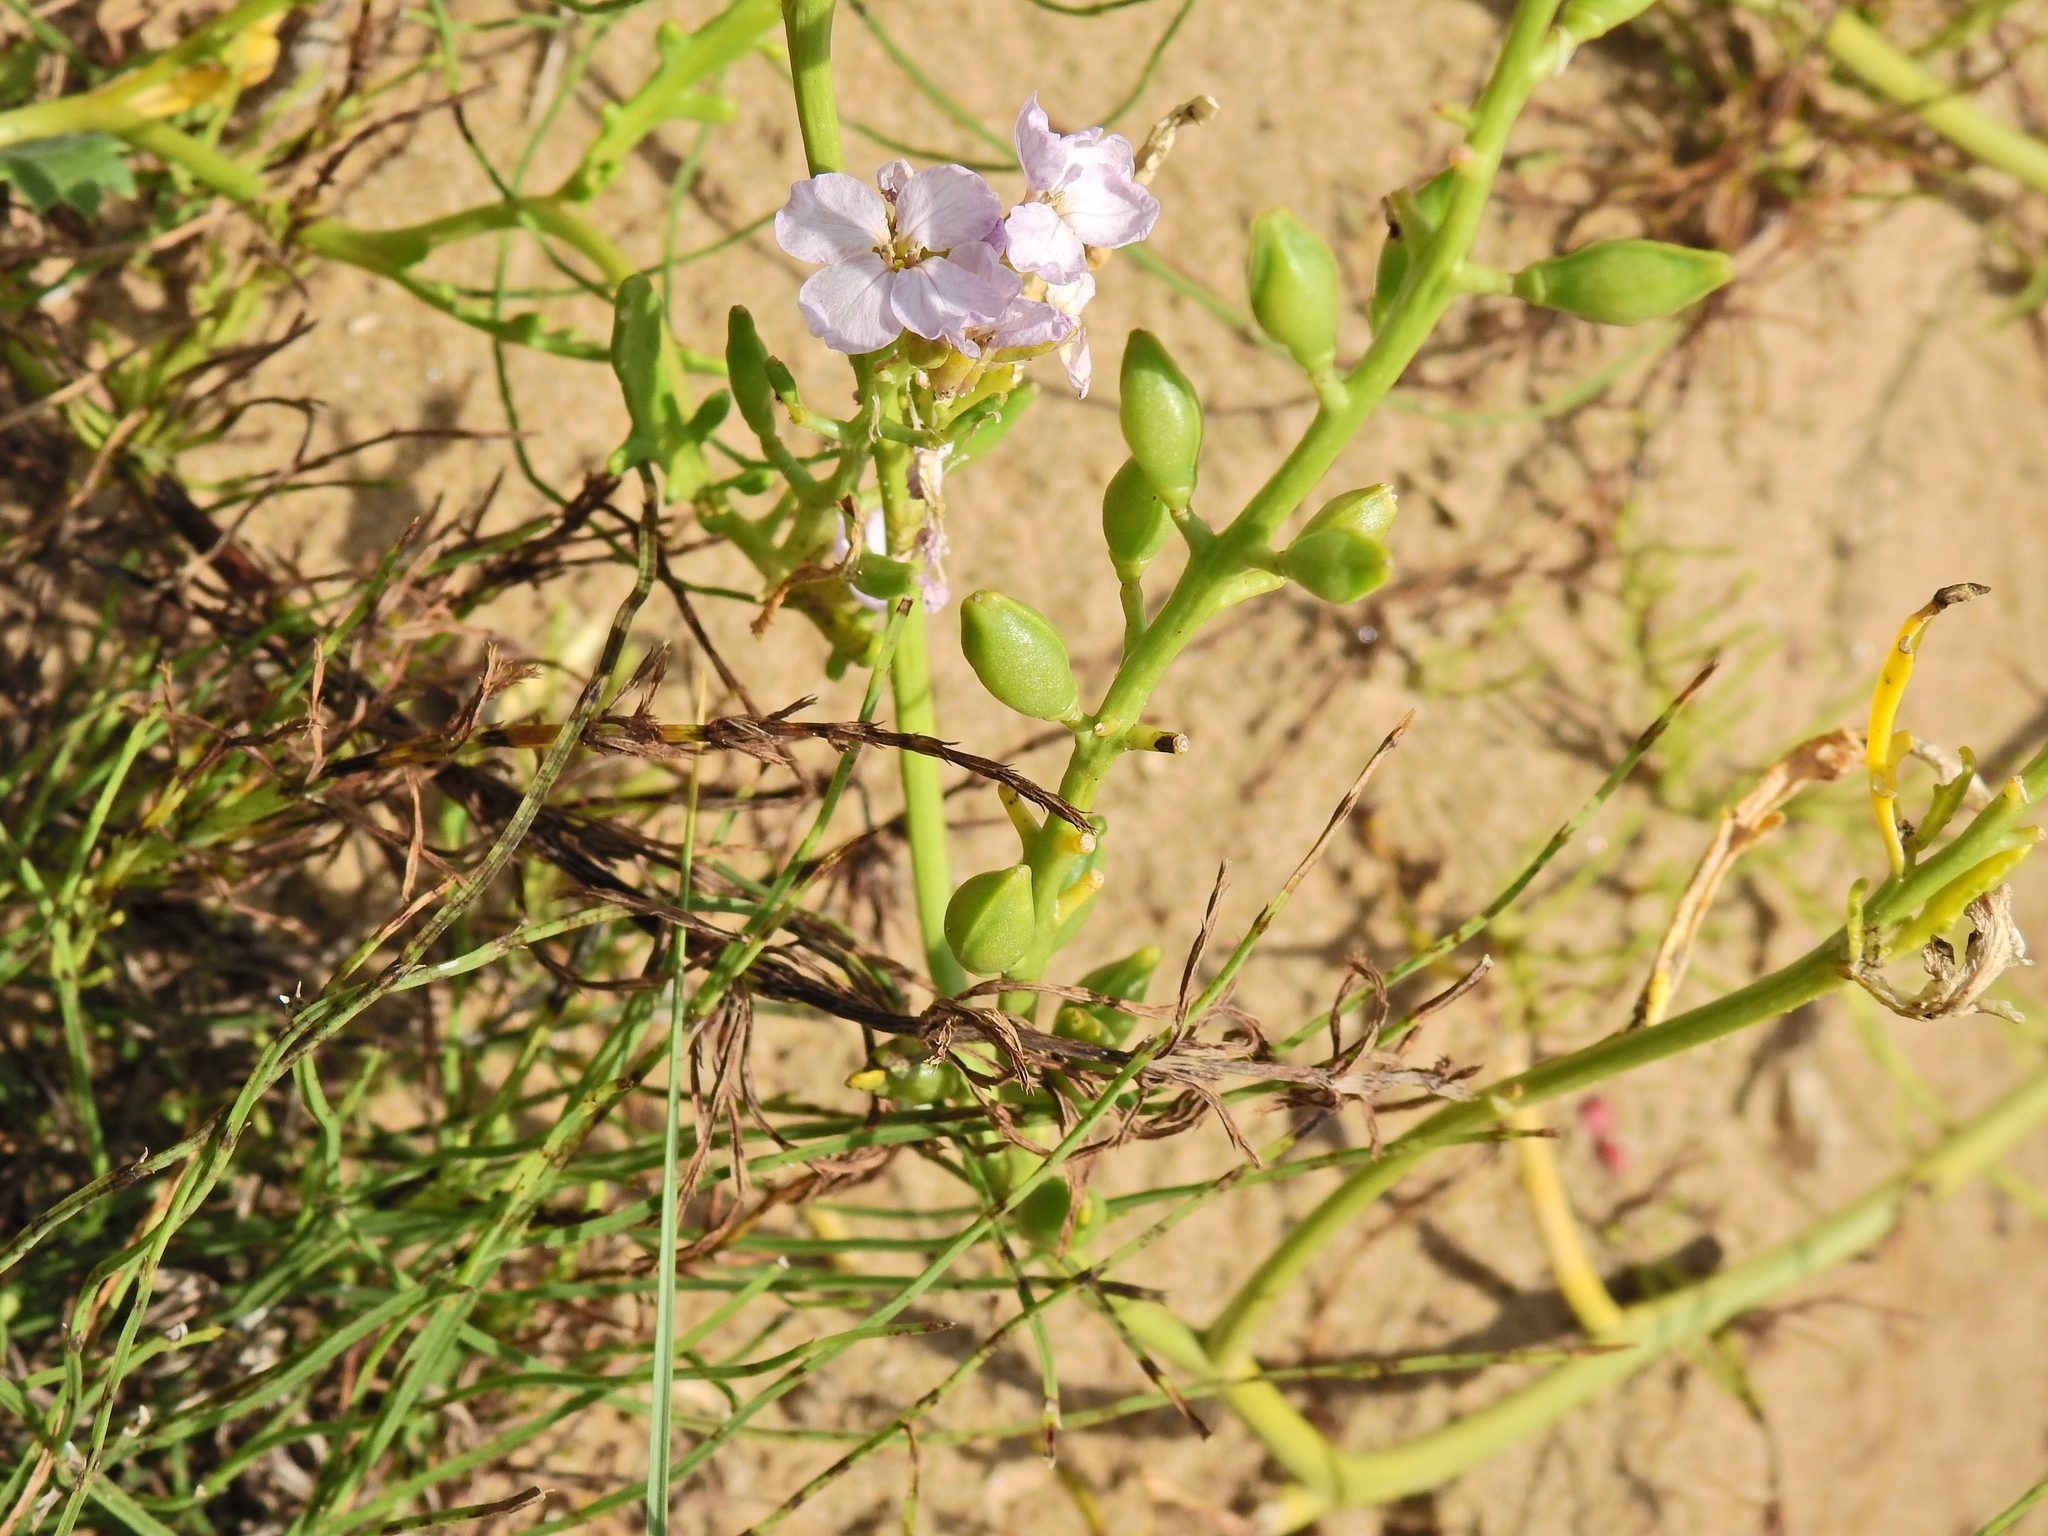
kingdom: Plantae
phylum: Tracheophyta
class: Magnoliopsida
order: Brassicales
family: Brassicaceae
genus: Cakile
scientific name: Cakile maritima
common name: Sea rocket
